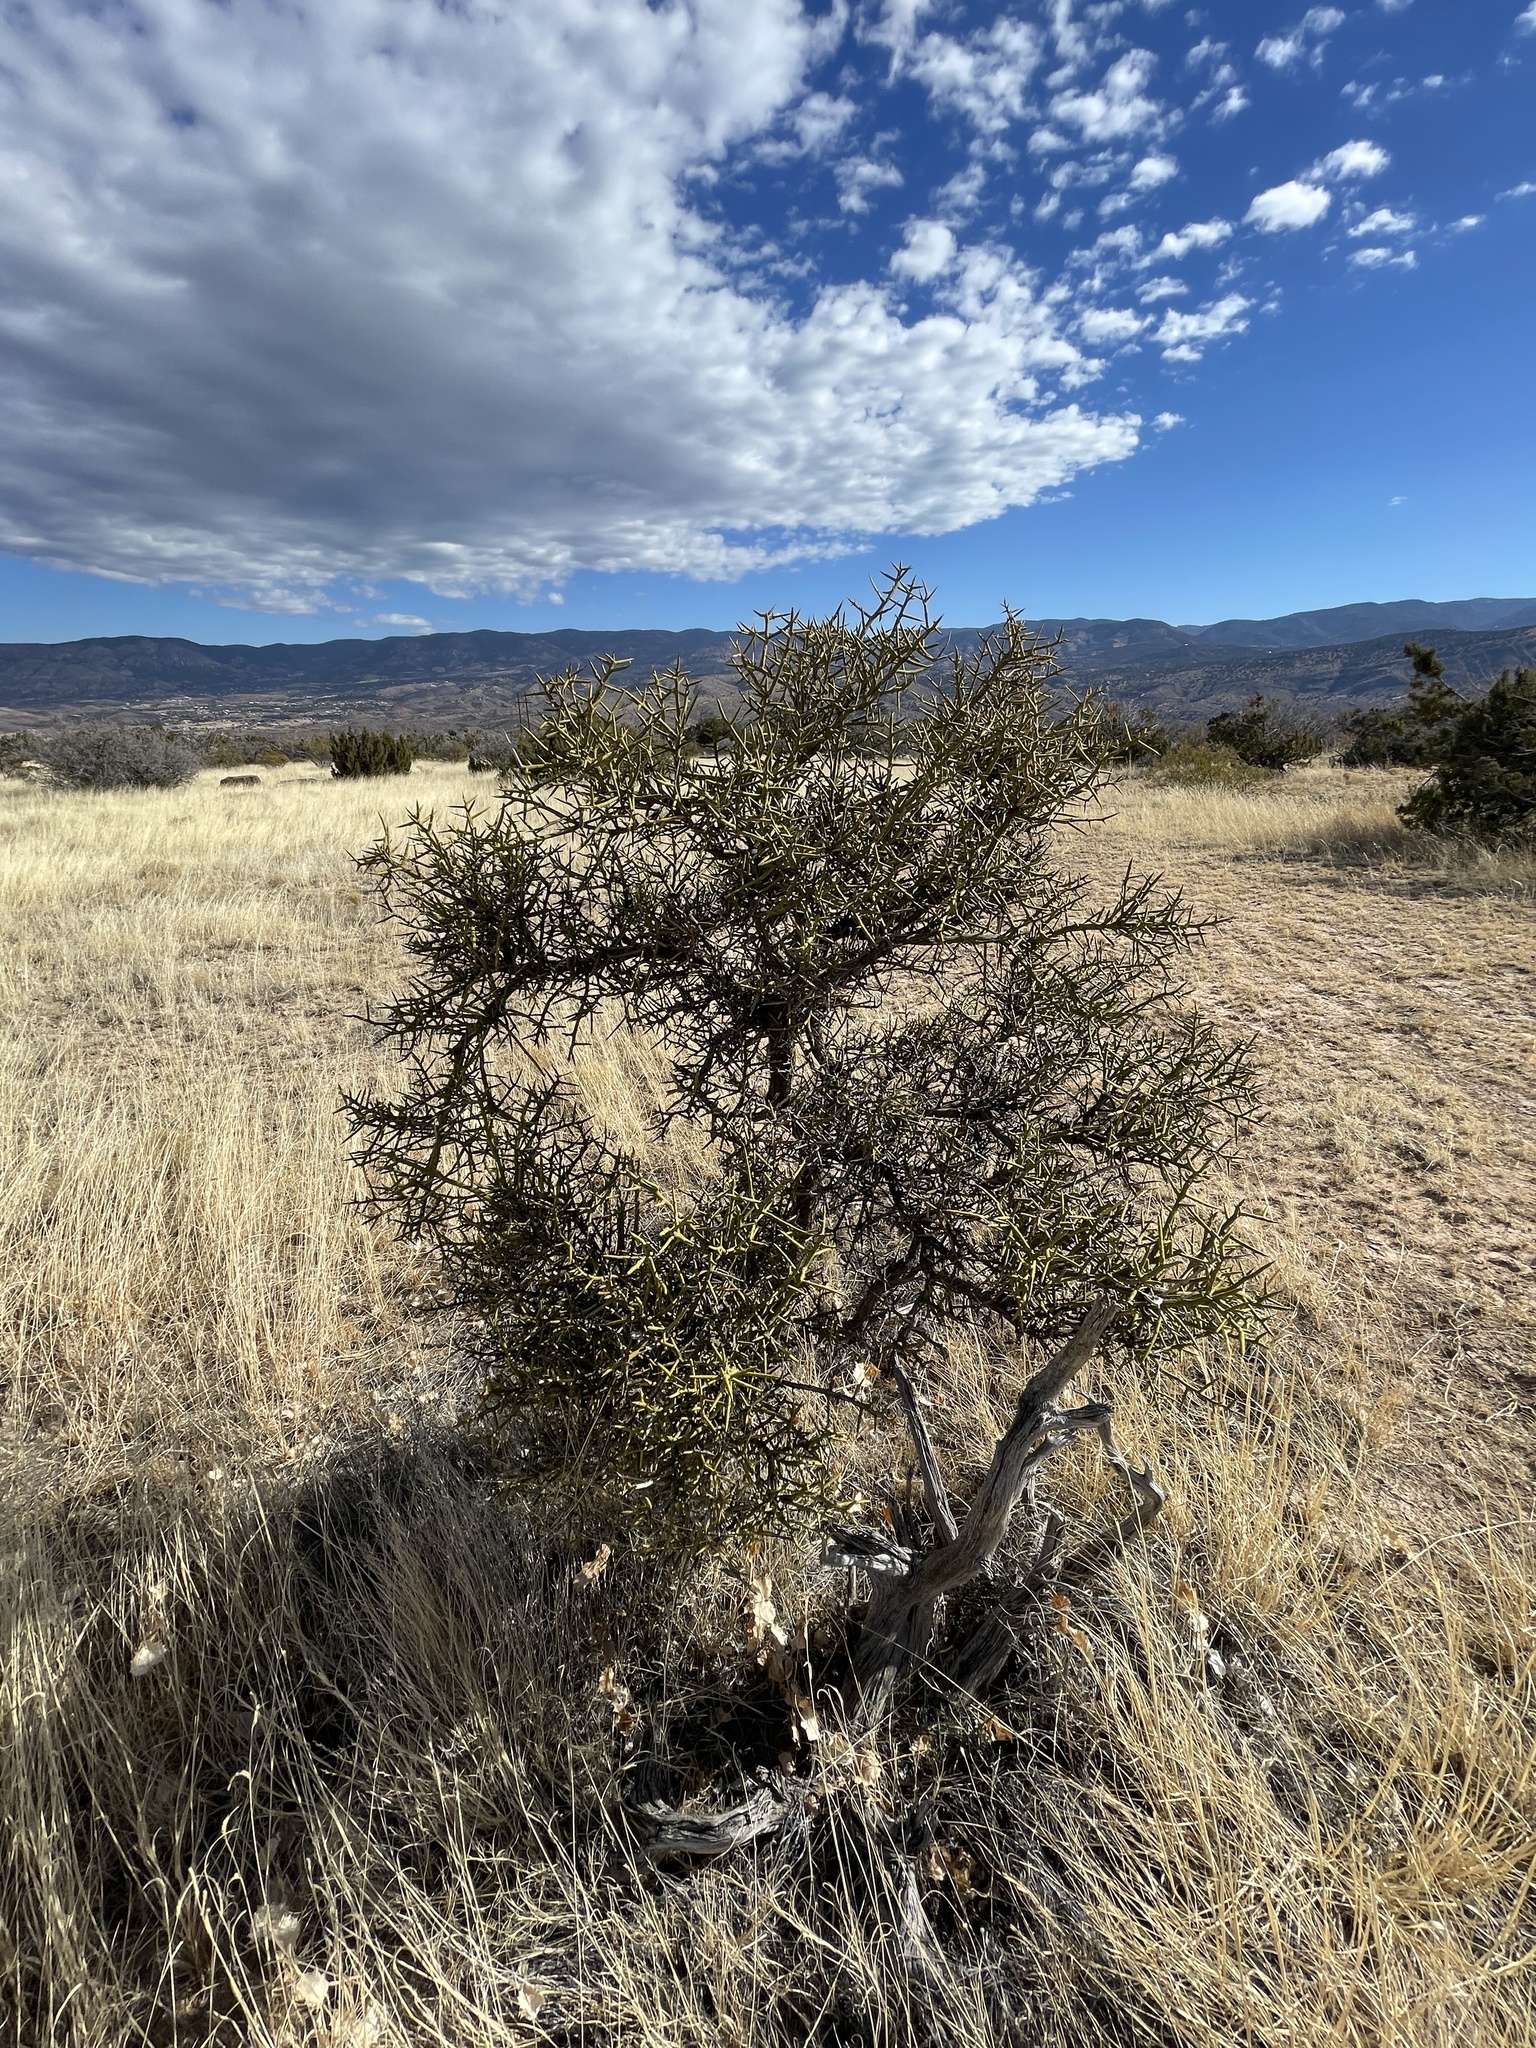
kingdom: Plantae
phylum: Tracheophyta
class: Magnoliopsida
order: Brassicales
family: Koeberliniaceae
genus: Koeberlinia
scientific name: Koeberlinia spinosa
